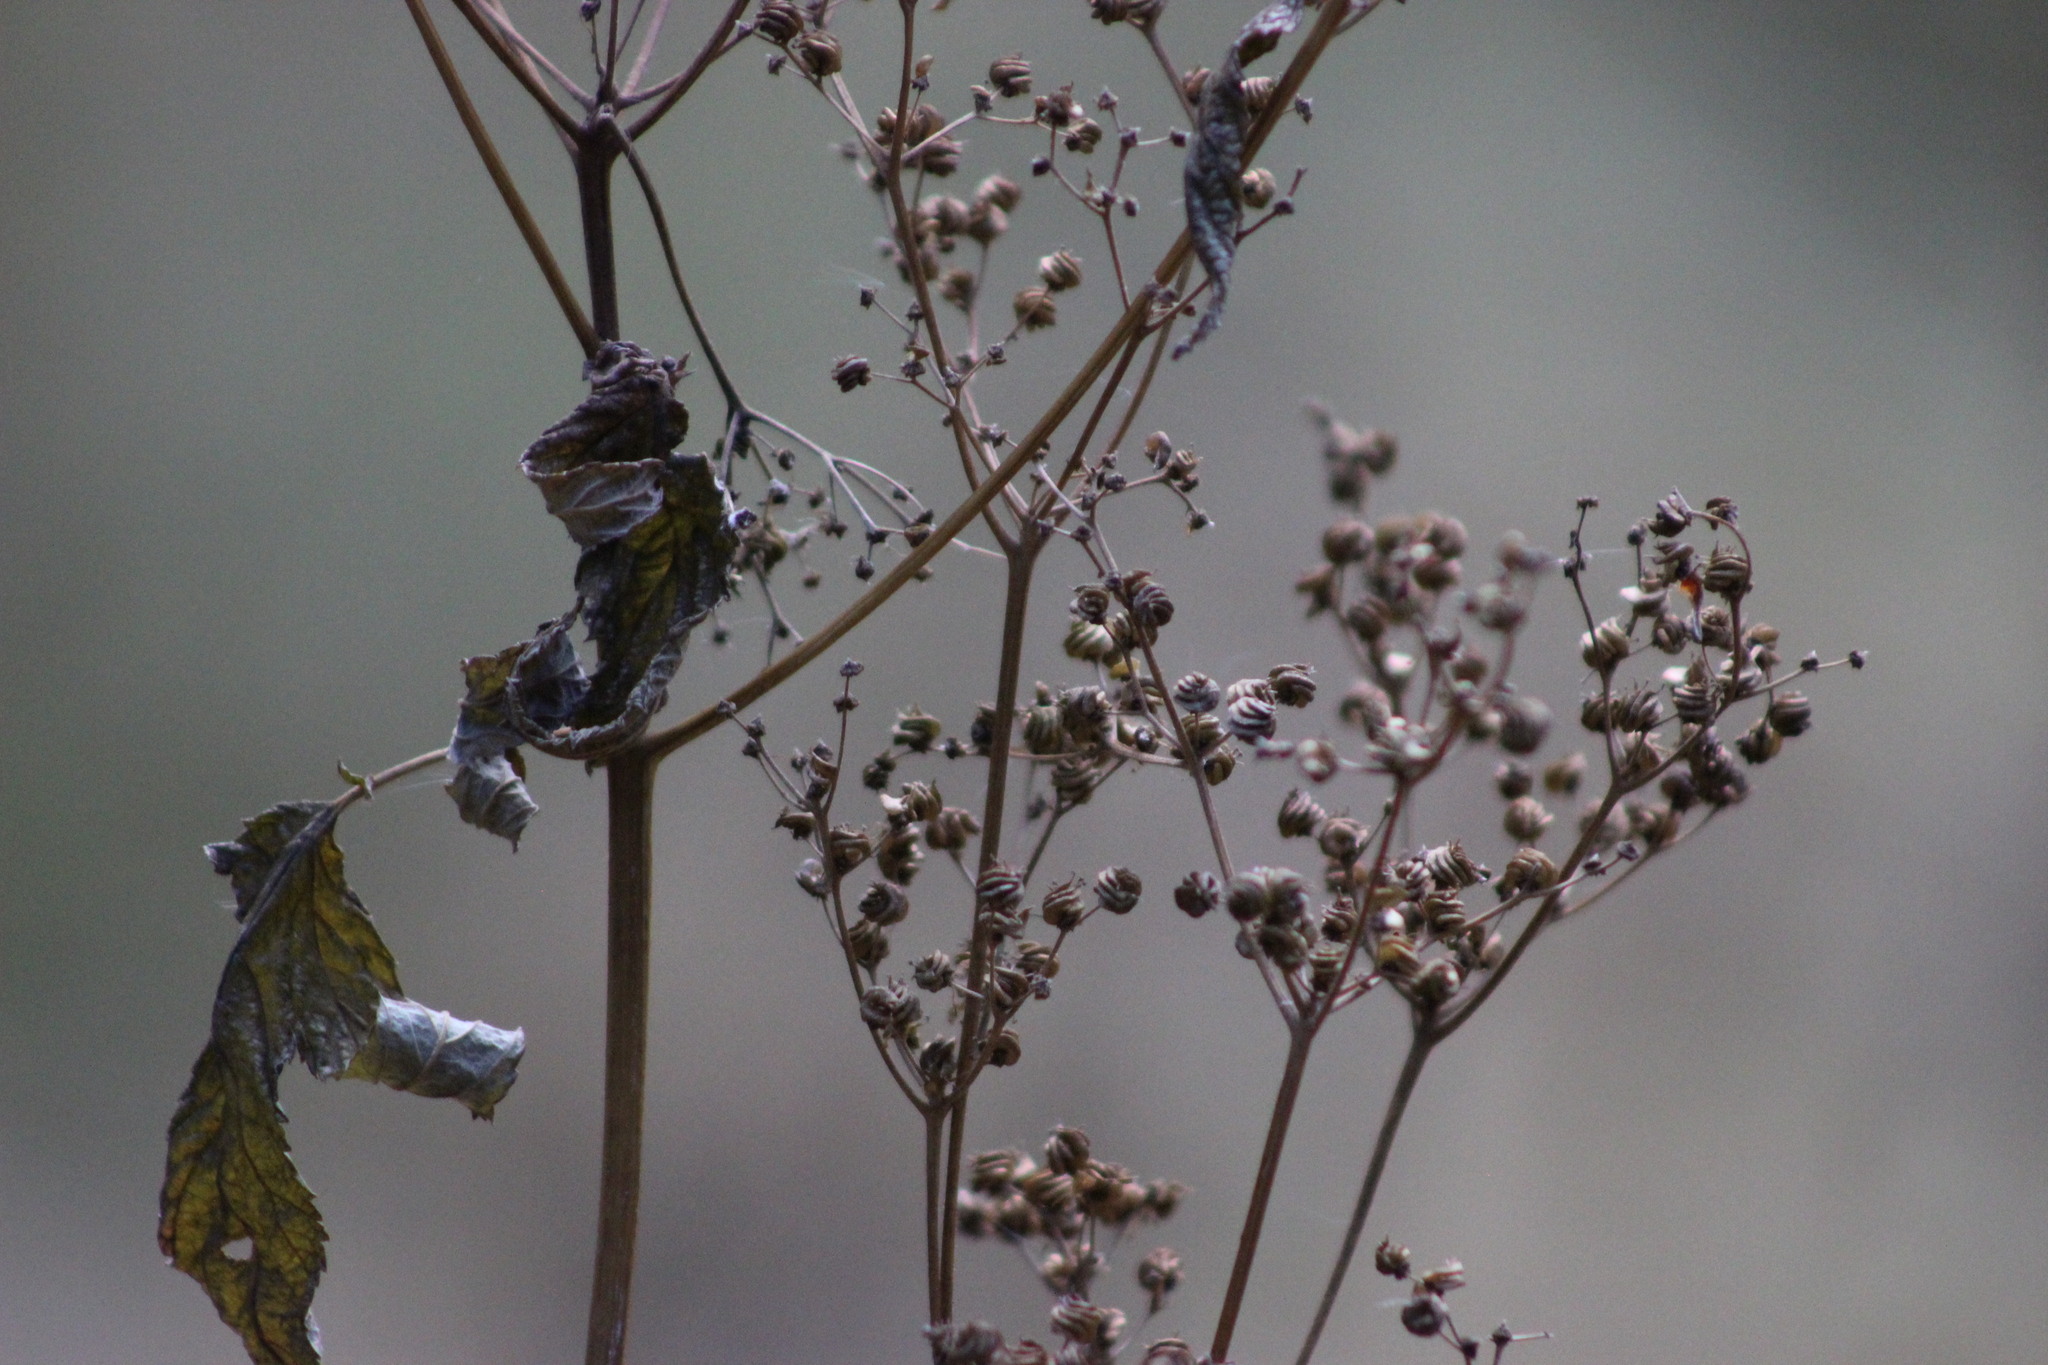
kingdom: Plantae
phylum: Tracheophyta
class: Magnoliopsida
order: Rosales
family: Rosaceae
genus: Filipendula
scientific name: Filipendula ulmaria
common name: Meadowsweet
